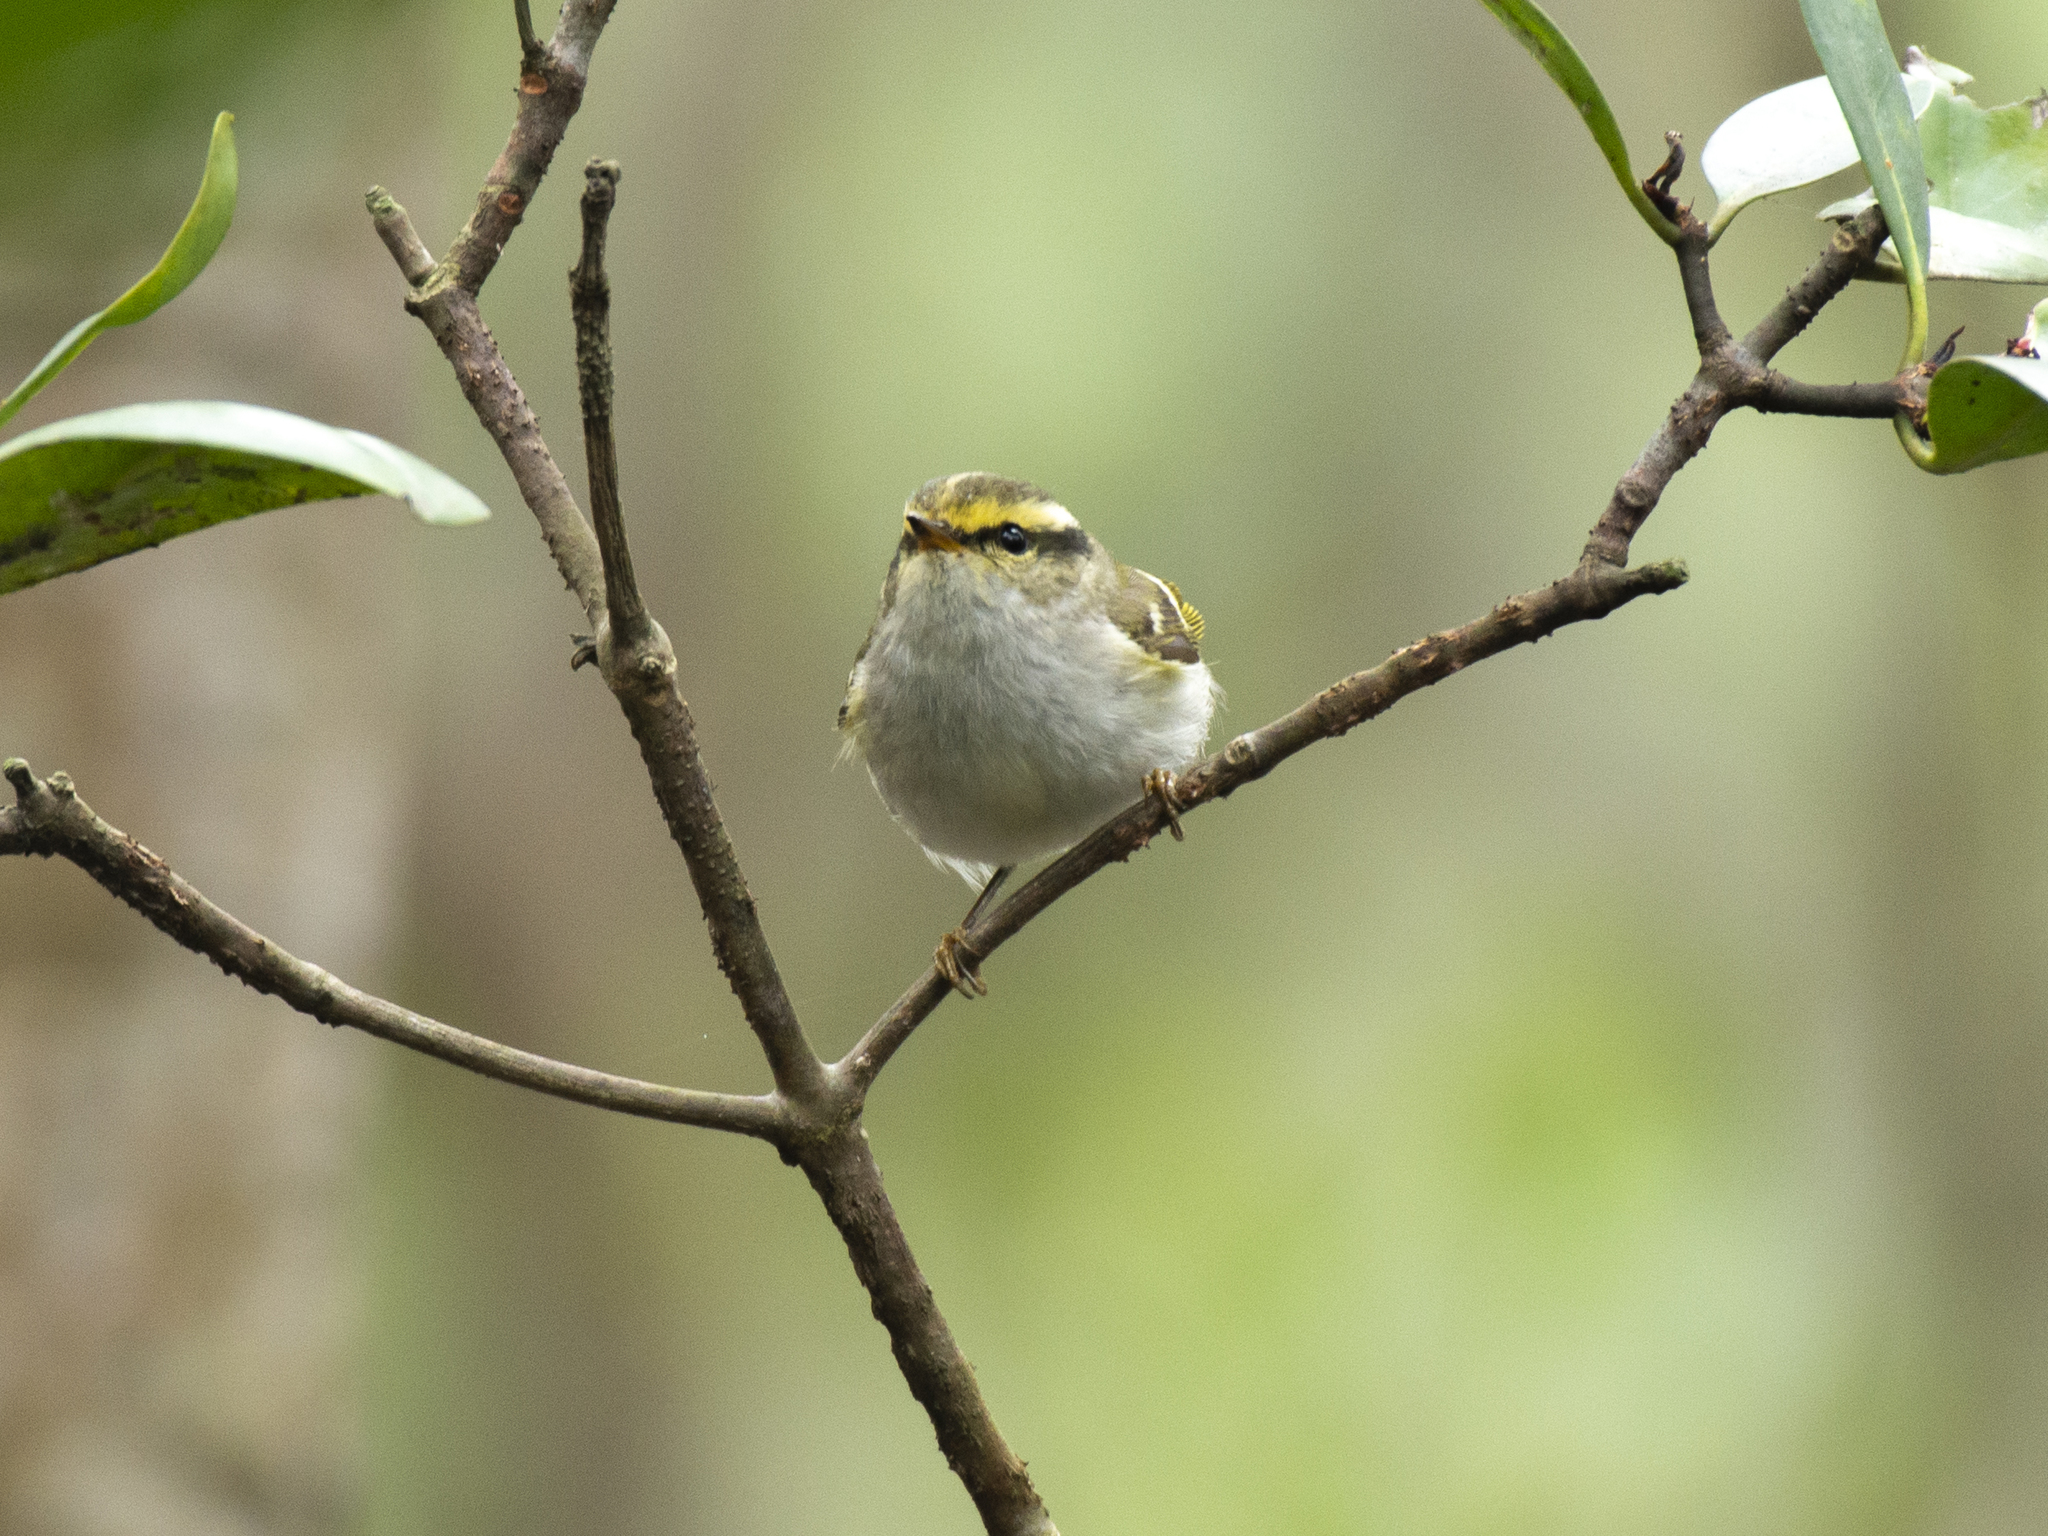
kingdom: Animalia
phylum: Chordata
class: Aves
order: Passeriformes
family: Phylloscopidae
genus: Phylloscopus
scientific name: Phylloscopus proregulus
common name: Pallas's leaf warbler
